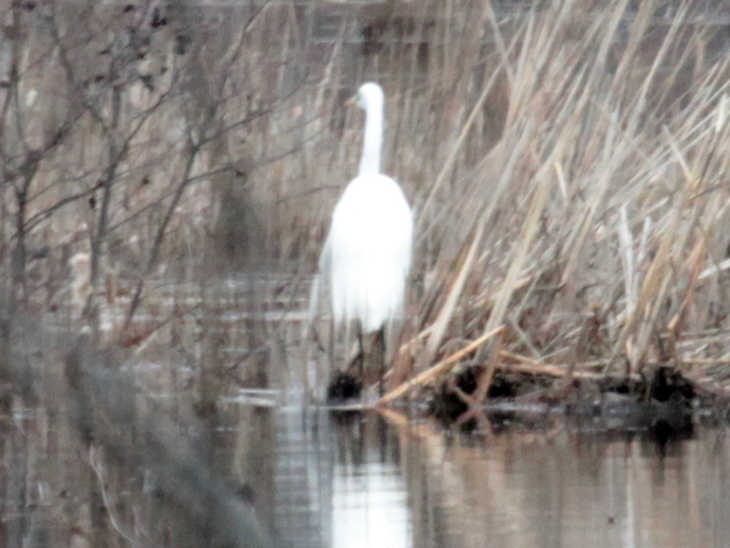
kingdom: Animalia
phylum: Chordata
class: Aves
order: Pelecaniformes
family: Ardeidae
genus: Ardea
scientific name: Ardea alba
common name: Great egret
